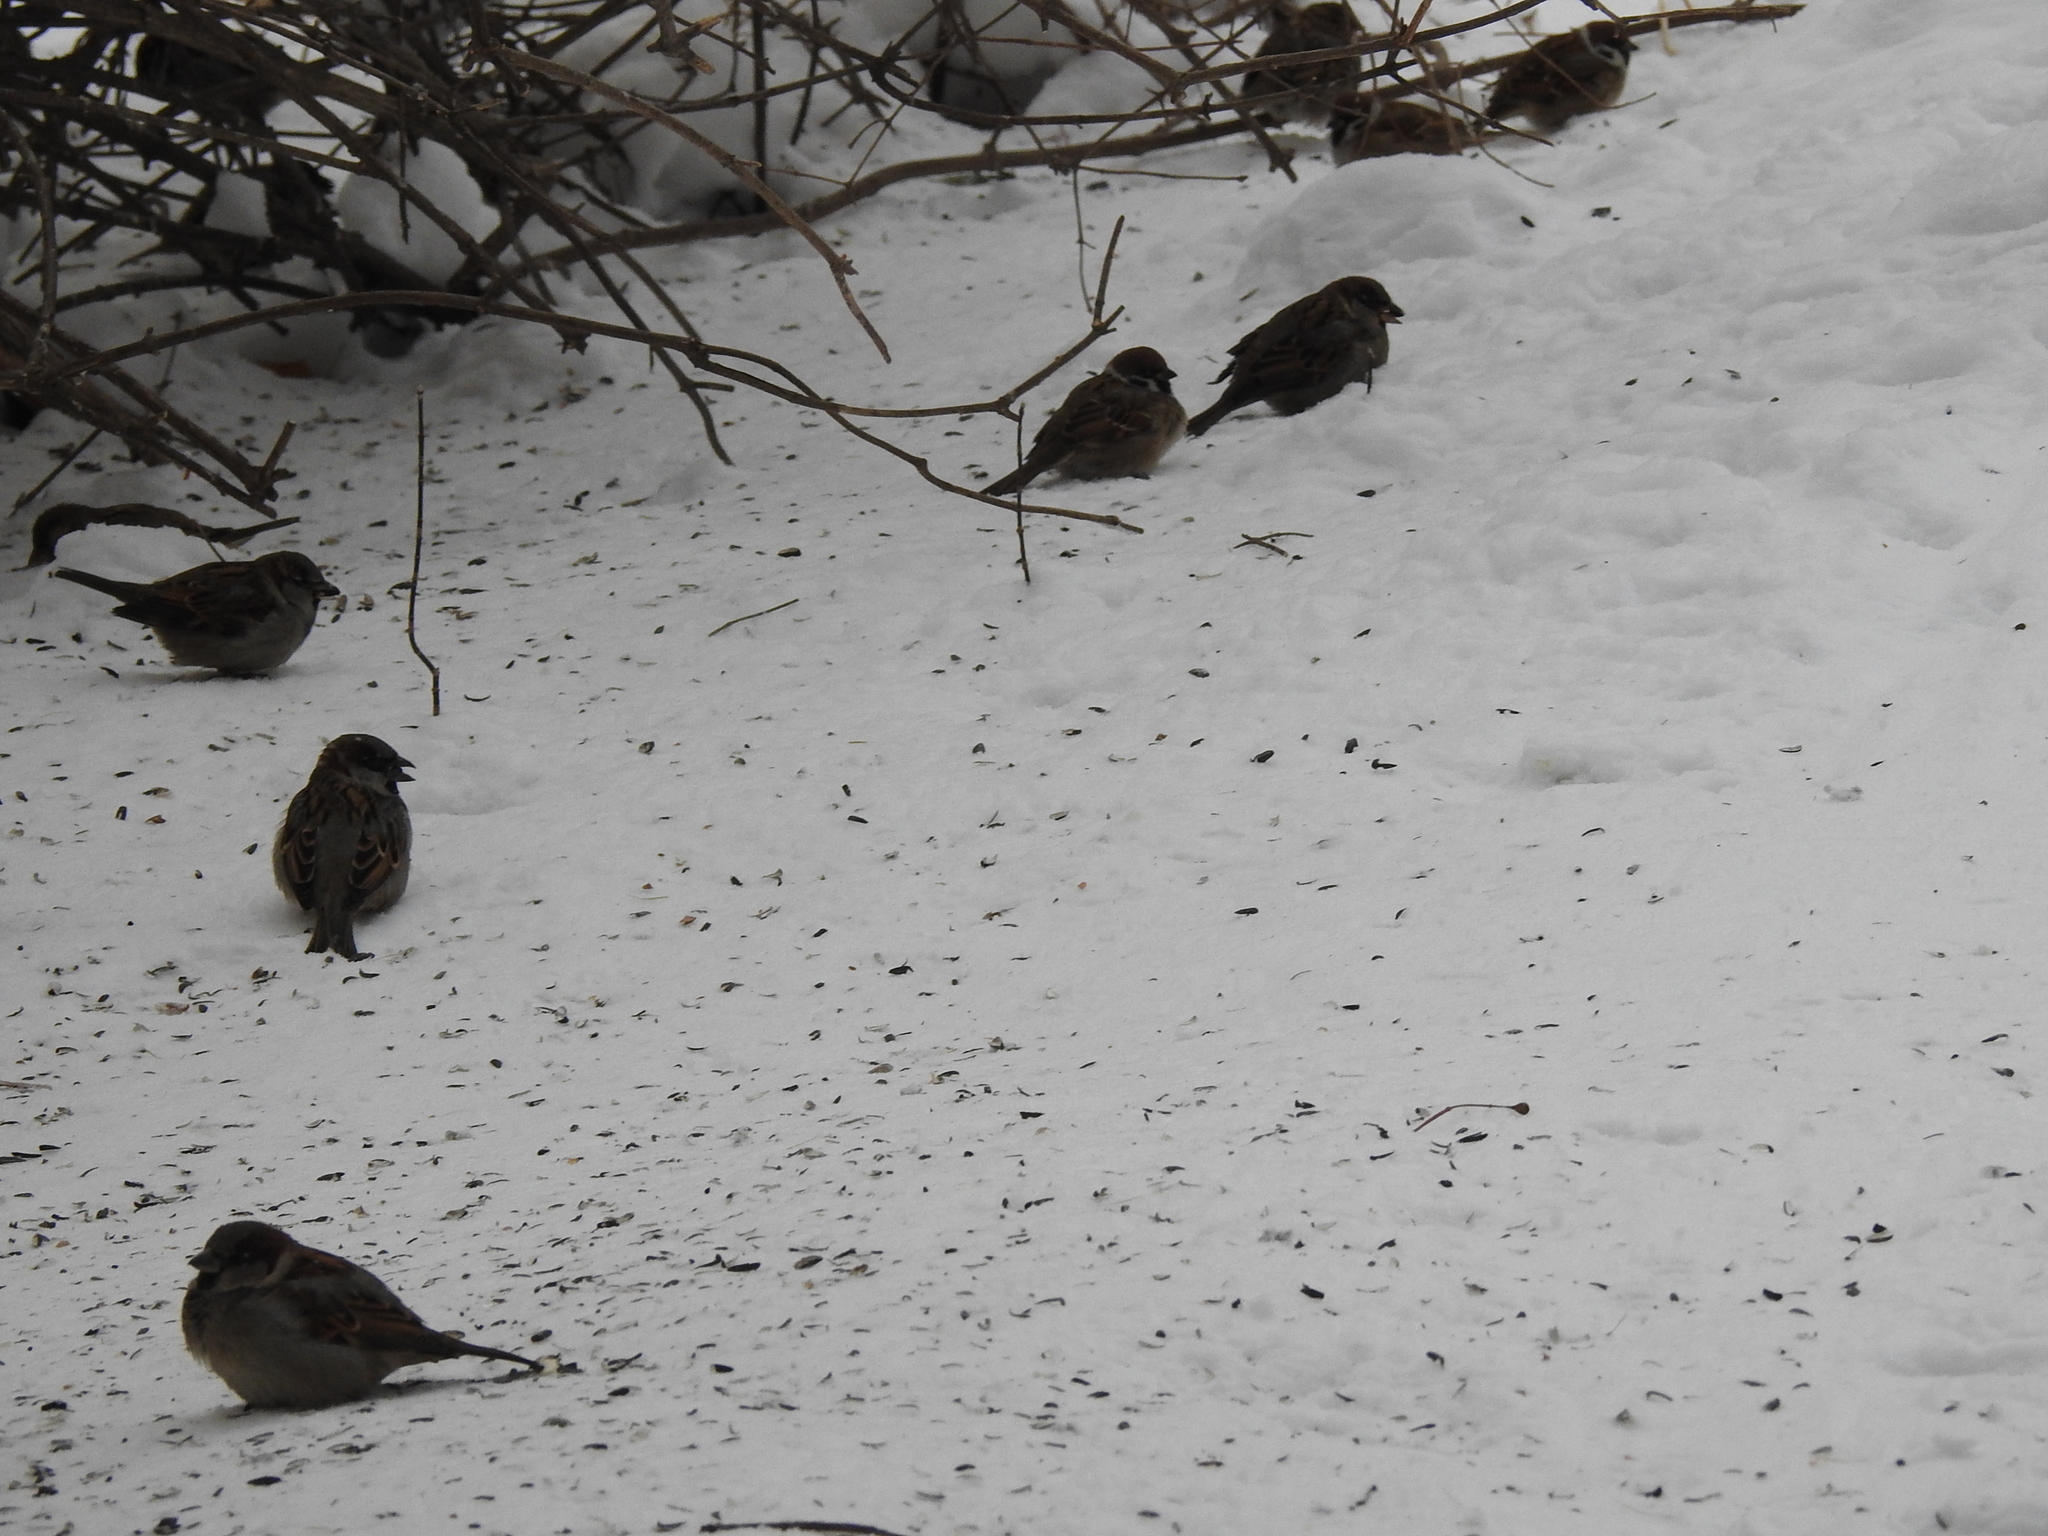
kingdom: Animalia
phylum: Chordata
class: Aves
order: Passeriformes
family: Passeridae
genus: Passer
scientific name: Passer domesticus
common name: House sparrow
